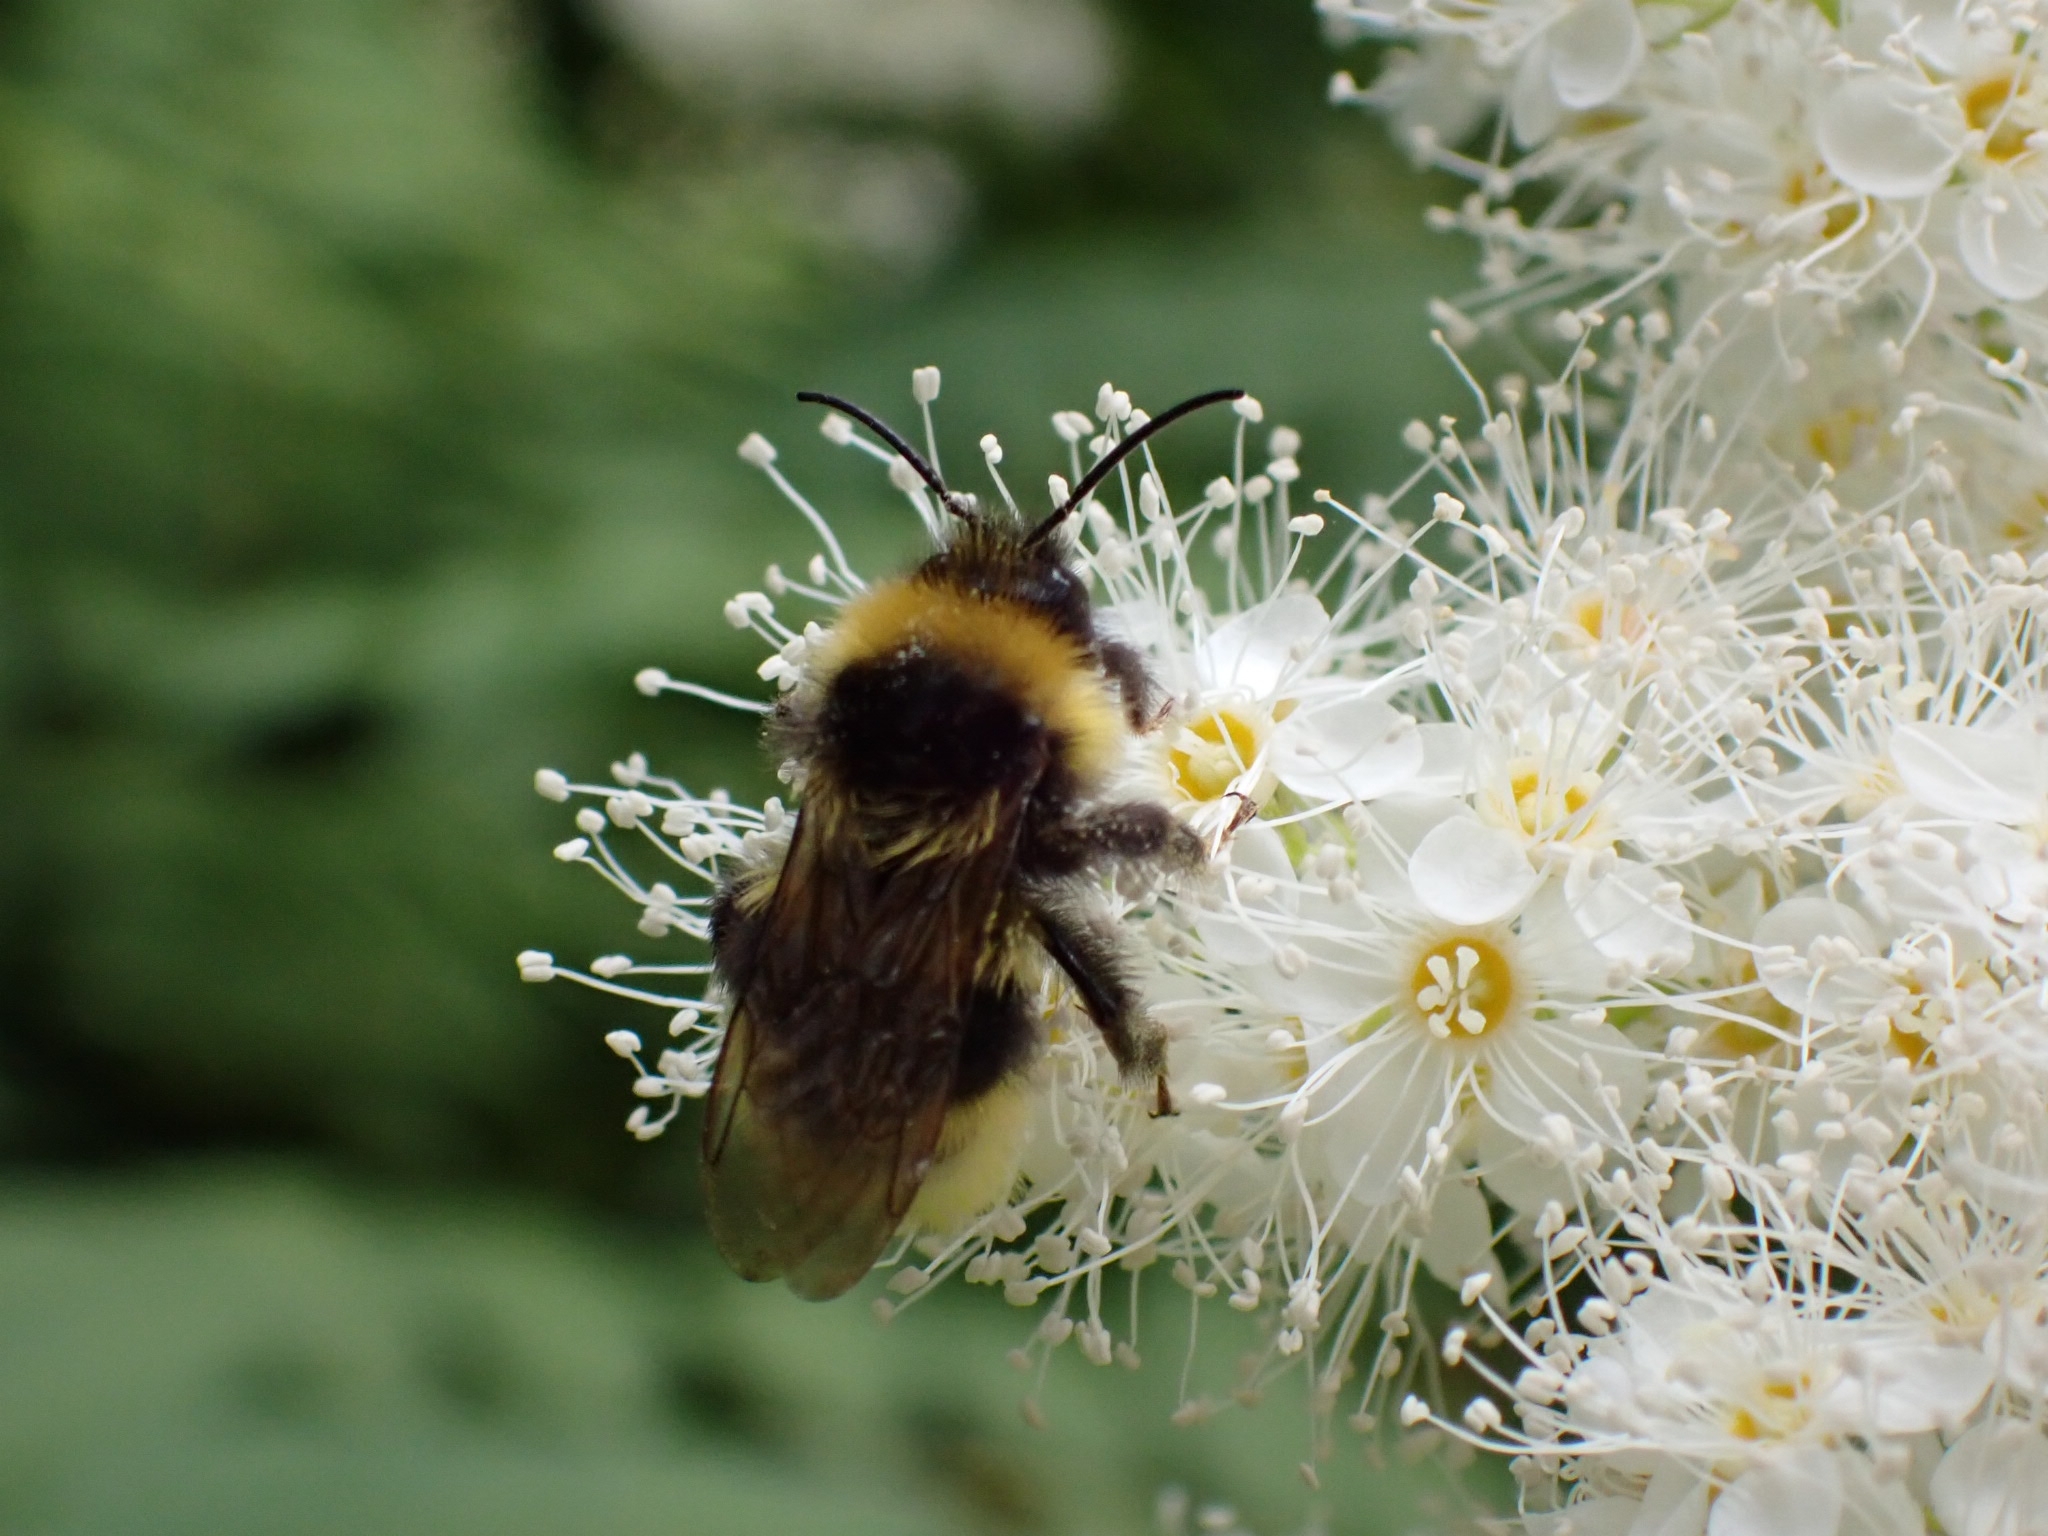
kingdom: Animalia
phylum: Arthropoda
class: Insecta
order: Hymenoptera
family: Apidae
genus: Bombus
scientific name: Bombus bohemicus
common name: Gypsy cuckoo bee
